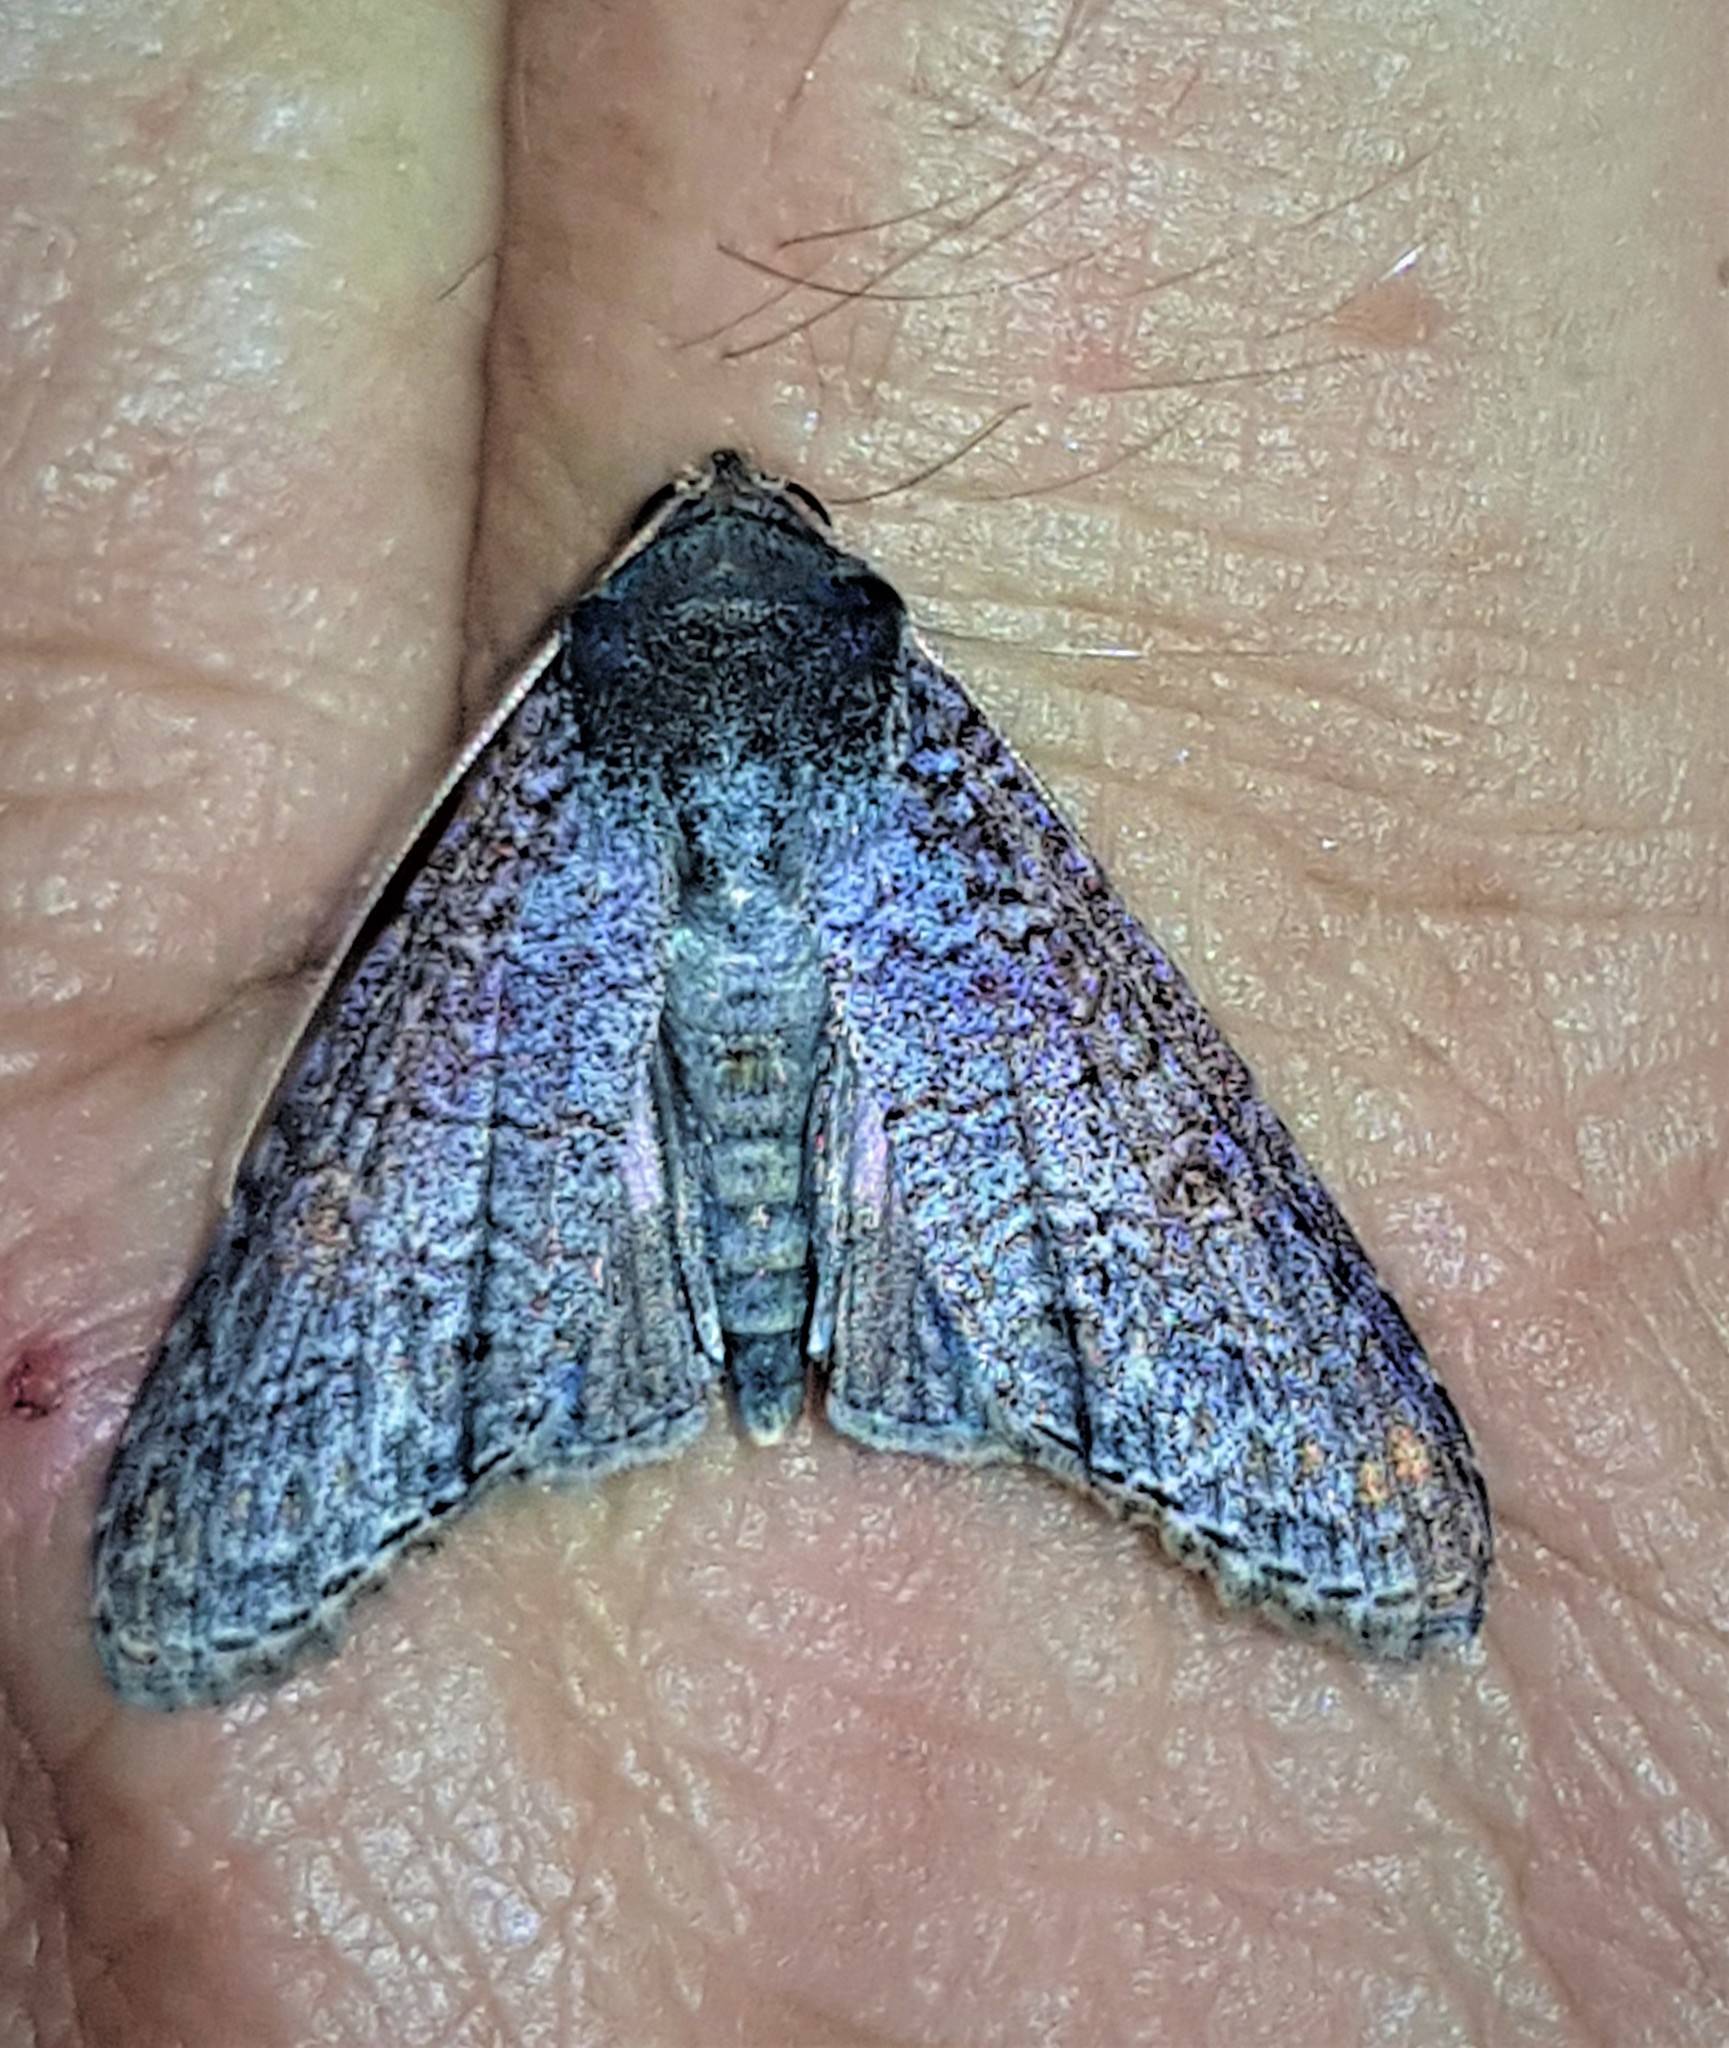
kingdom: Animalia
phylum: Arthropoda
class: Insecta
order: Lepidoptera
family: Euteliidae
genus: Stictoptera
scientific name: Stictoptera Nagara clara
